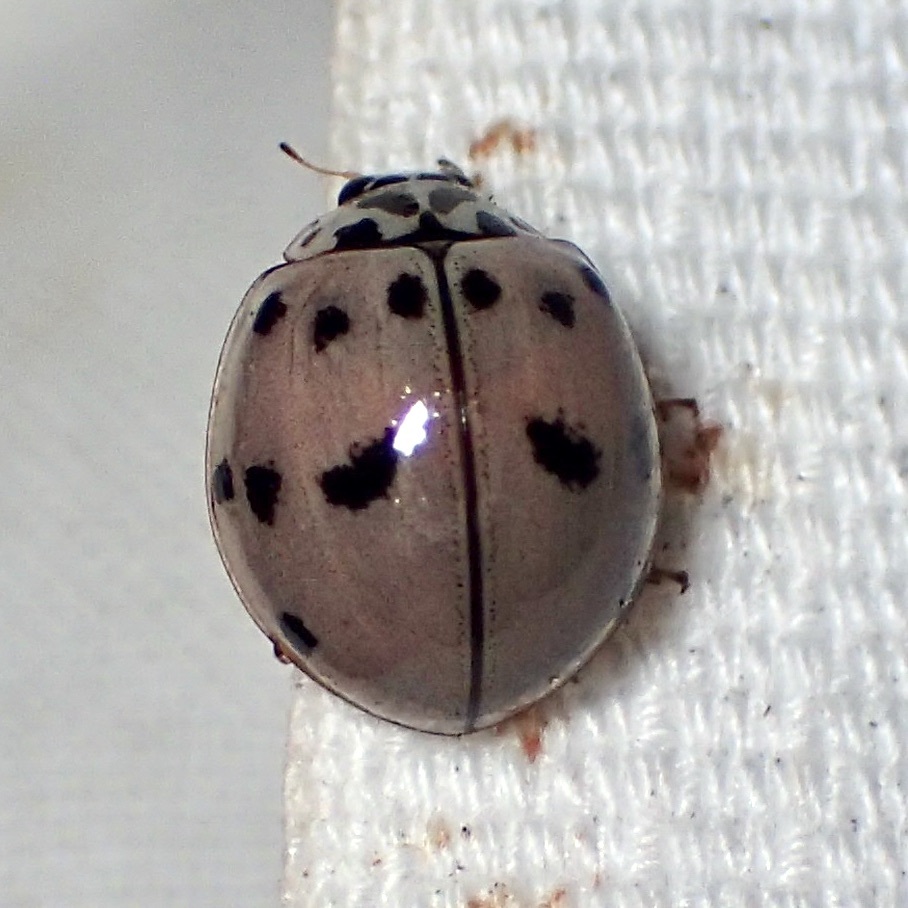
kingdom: Animalia
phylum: Arthropoda
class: Insecta
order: Coleoptera
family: Coccinellidae
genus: Olla
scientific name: Olla v-nigrum
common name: Ashy gray lady beetle
